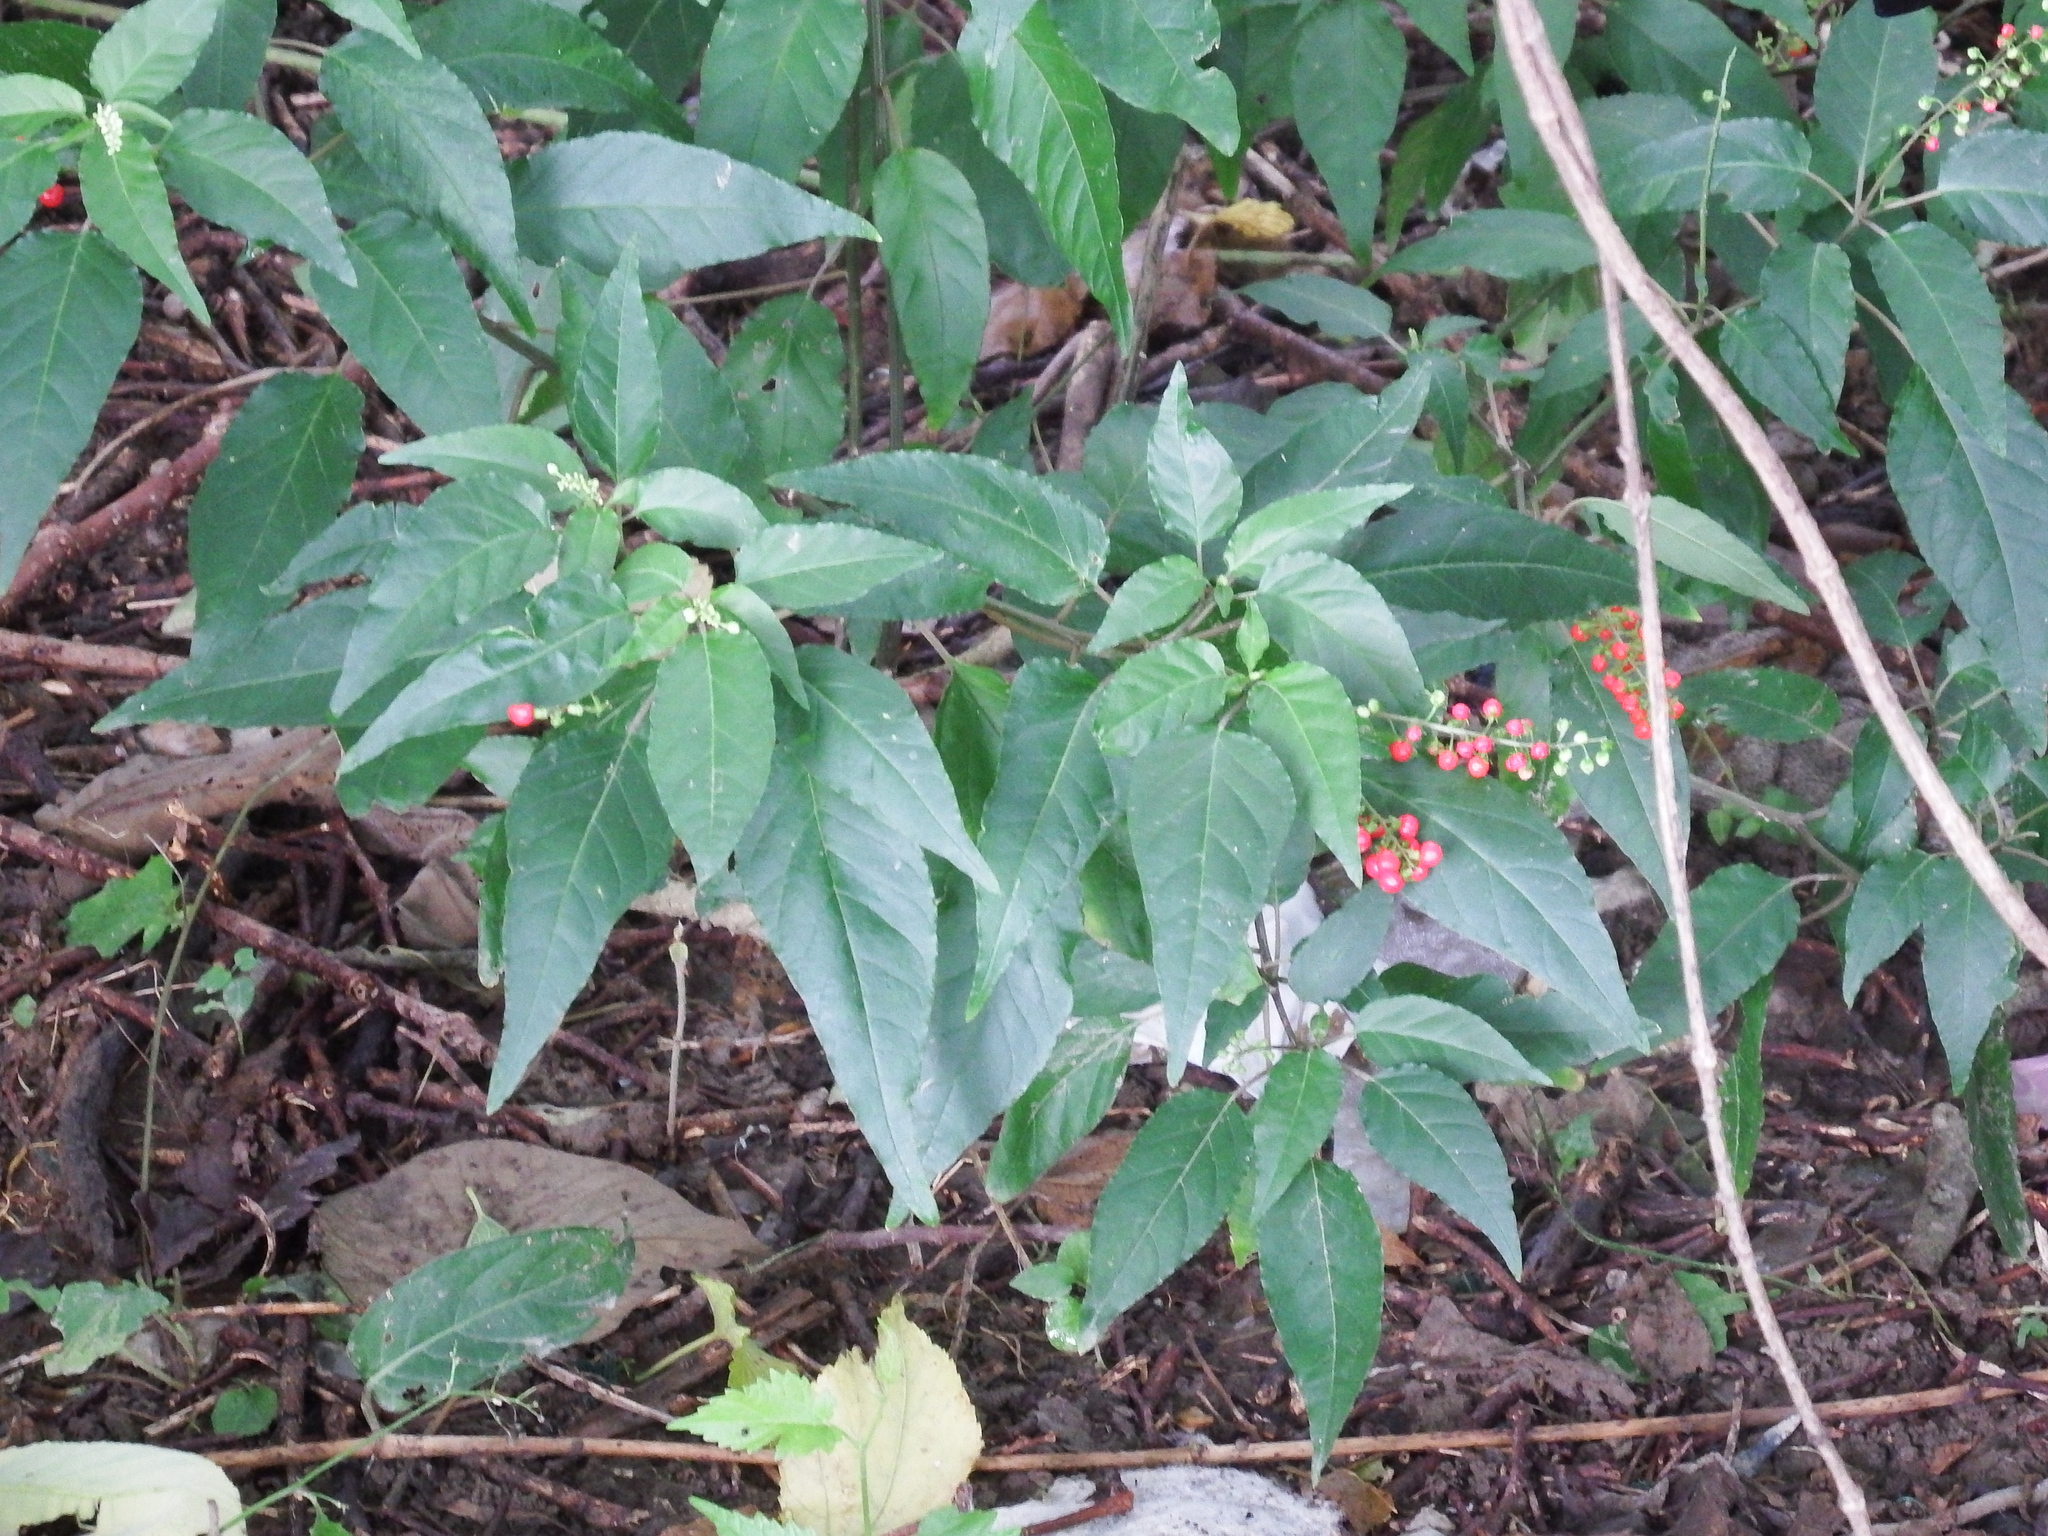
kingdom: Plantae
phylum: Tracheophyta
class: Magnoliopsida
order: Caryophyllales
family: Phytolaccaceae
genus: Rivina
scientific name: Rivina humilis
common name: Rougeplant
